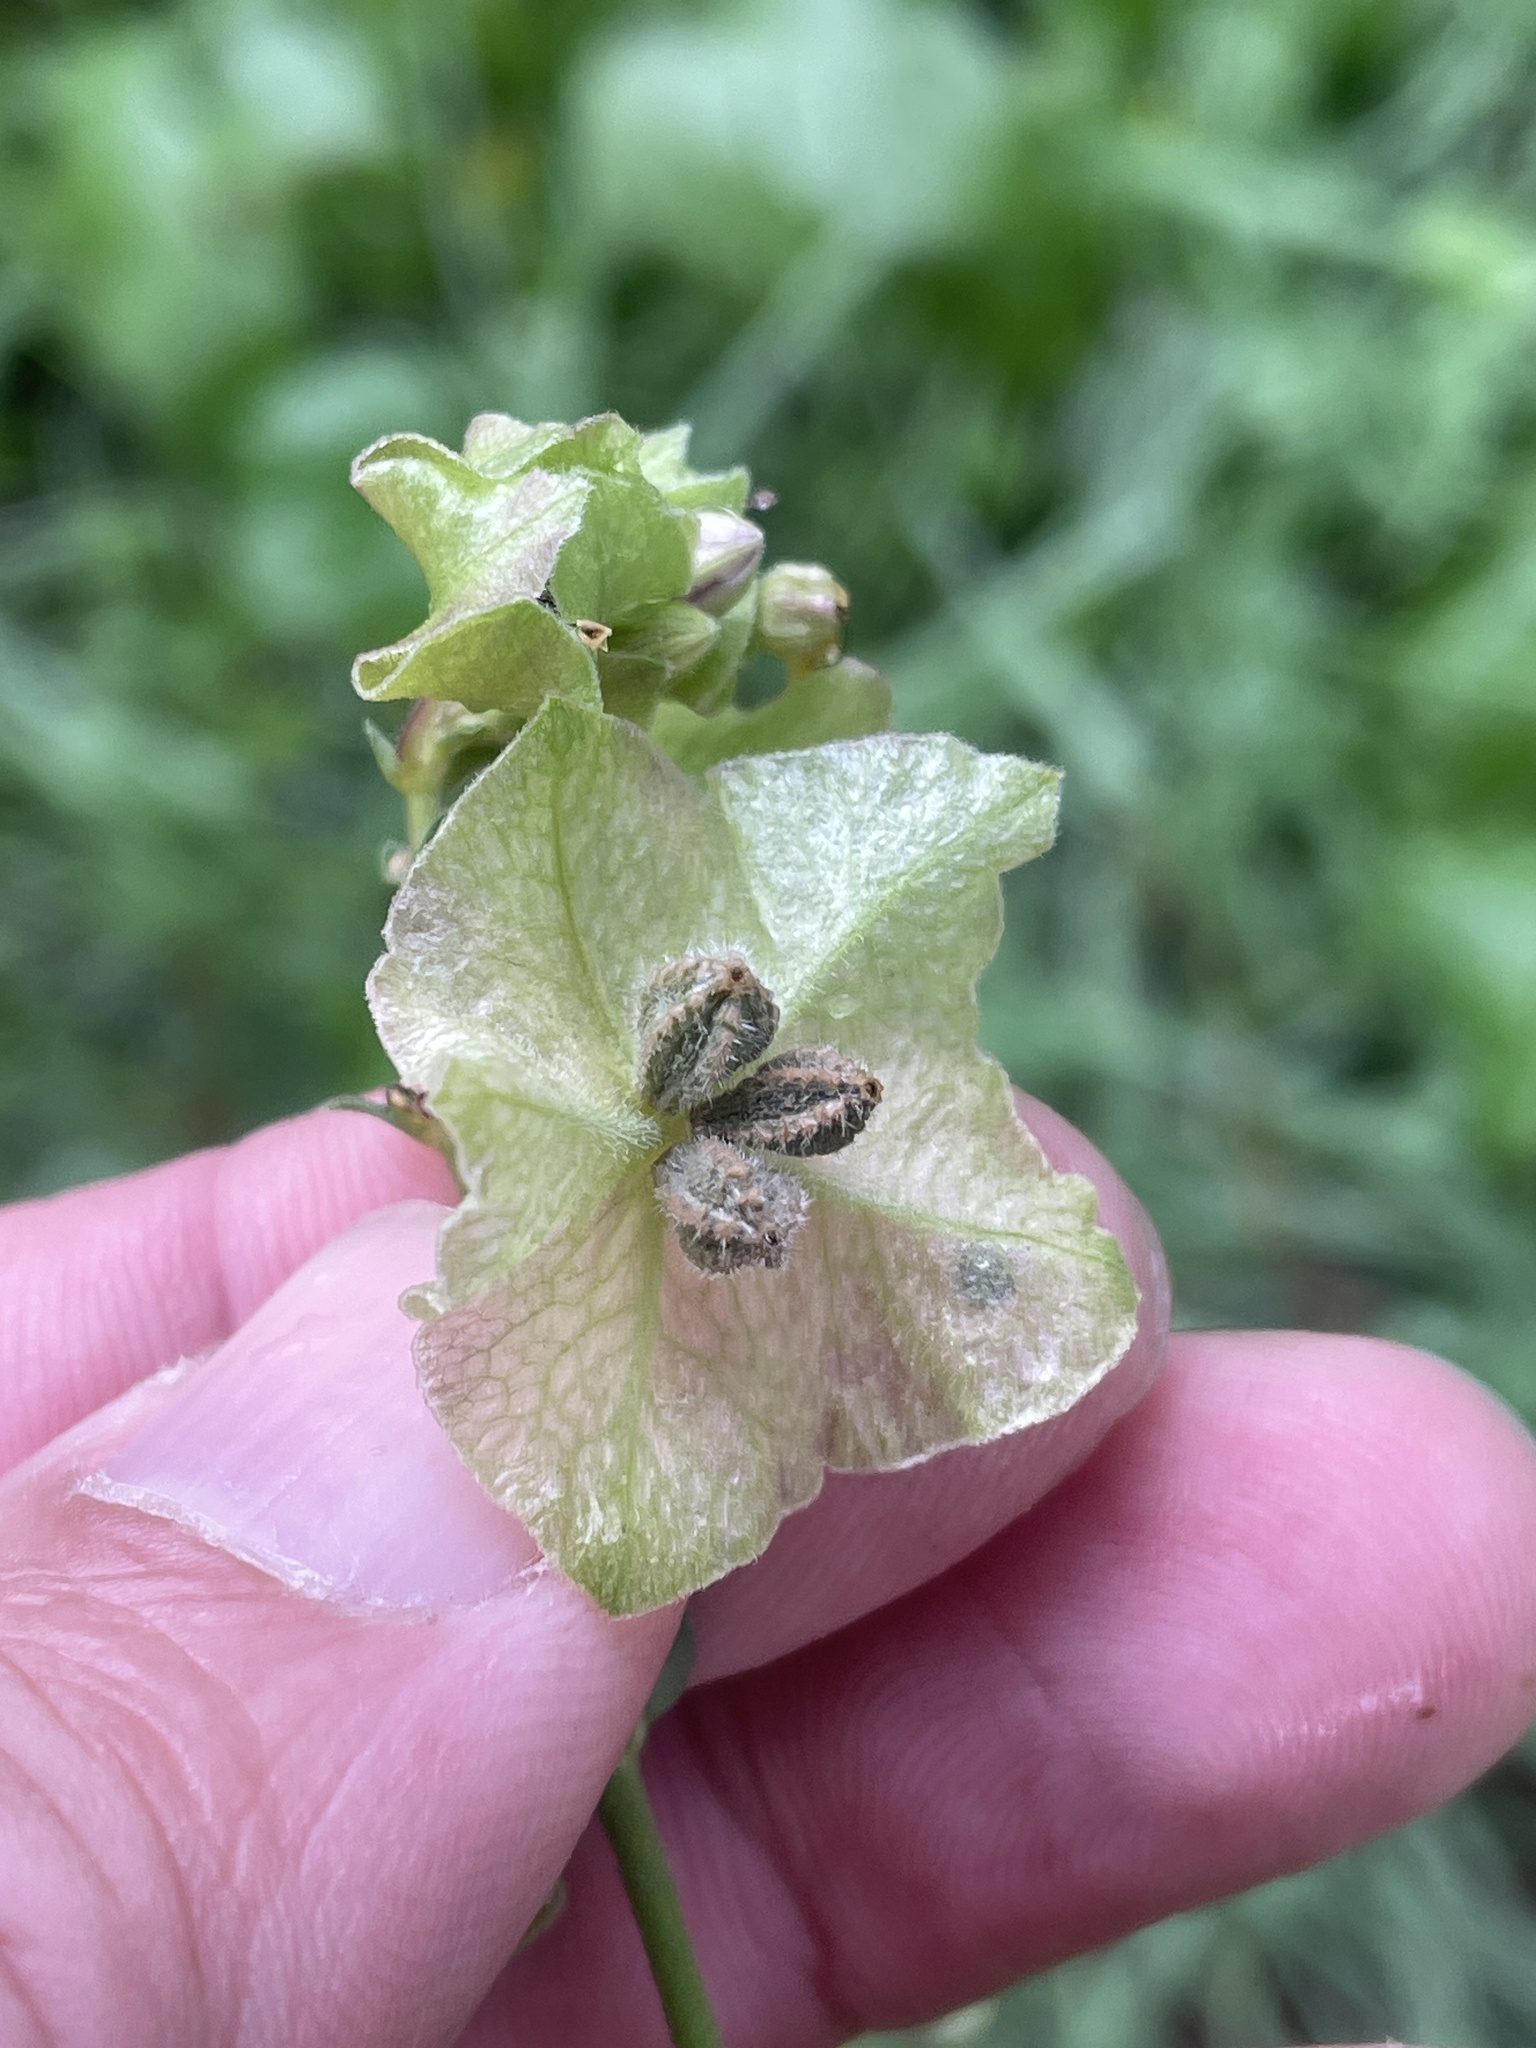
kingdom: Plantae
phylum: Tracheophyta
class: Magnoliopsida
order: Caryophyllales
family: Nyctaginaceae
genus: Mirabilis
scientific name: Mirabilis albida
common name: Hairy four-o'clock
